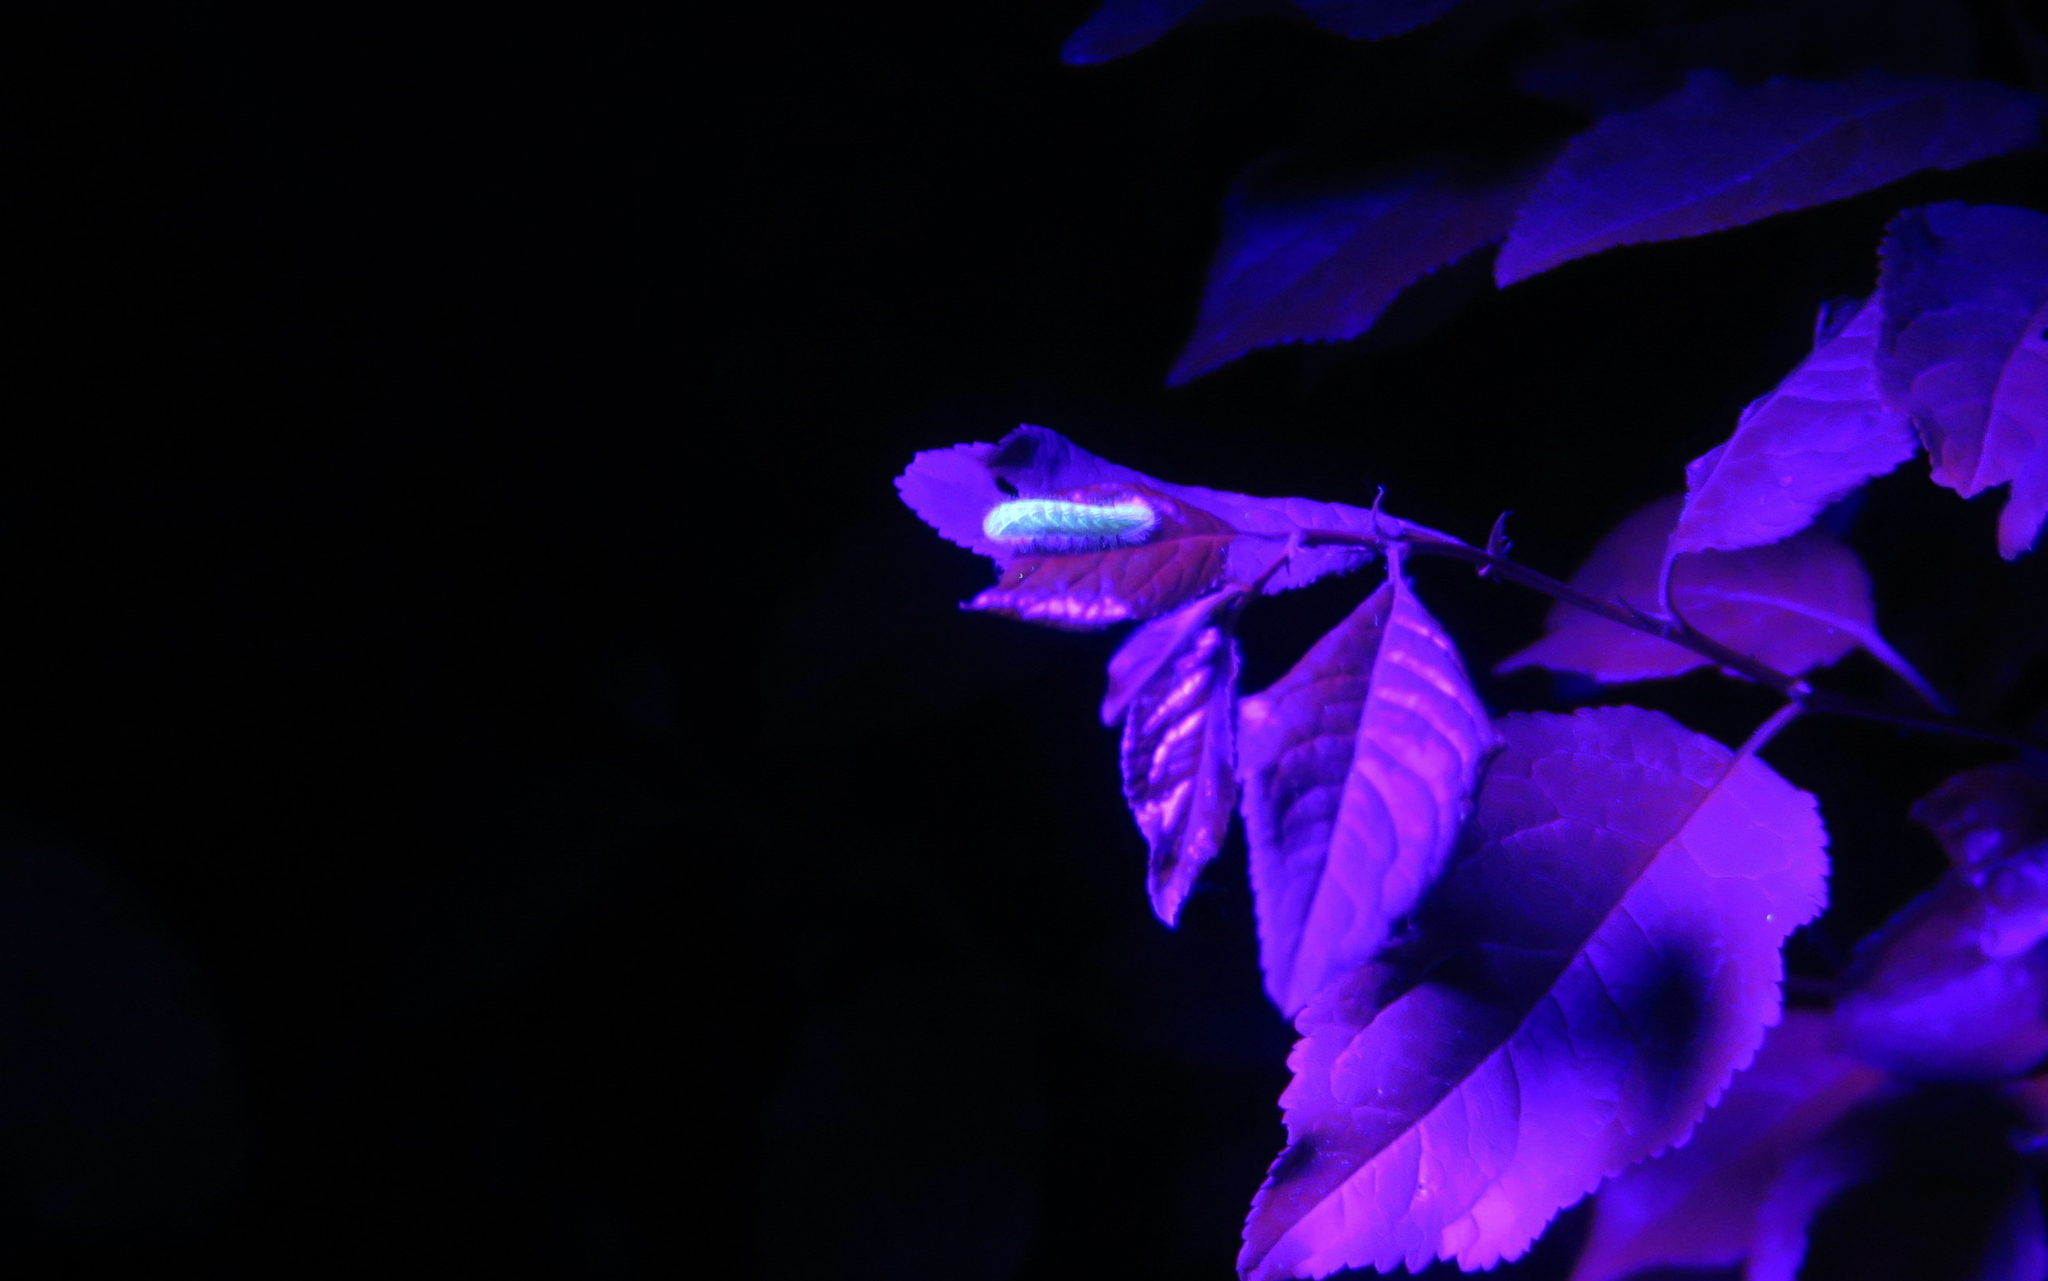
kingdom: Animalia
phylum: Arthropoda
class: Insecta
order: Lepidoptera
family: Lycaenidae
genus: Thecla
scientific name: Thecla betulae
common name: Brown hairstreak
